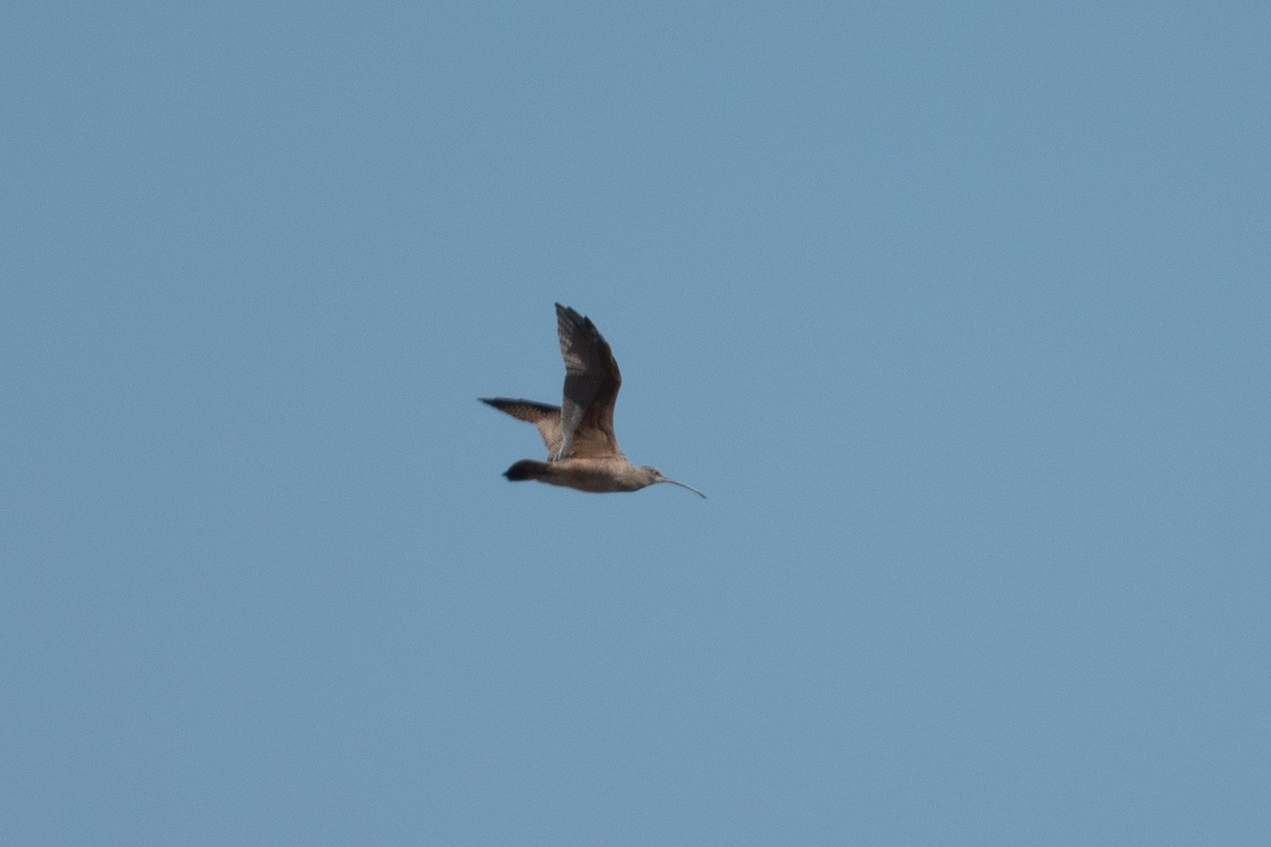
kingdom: Animalia
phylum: Chordata
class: Aves
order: Charadriiformes
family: Scolopacidae
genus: Numenius
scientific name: Numenius americanus
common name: Long-billed curlew
